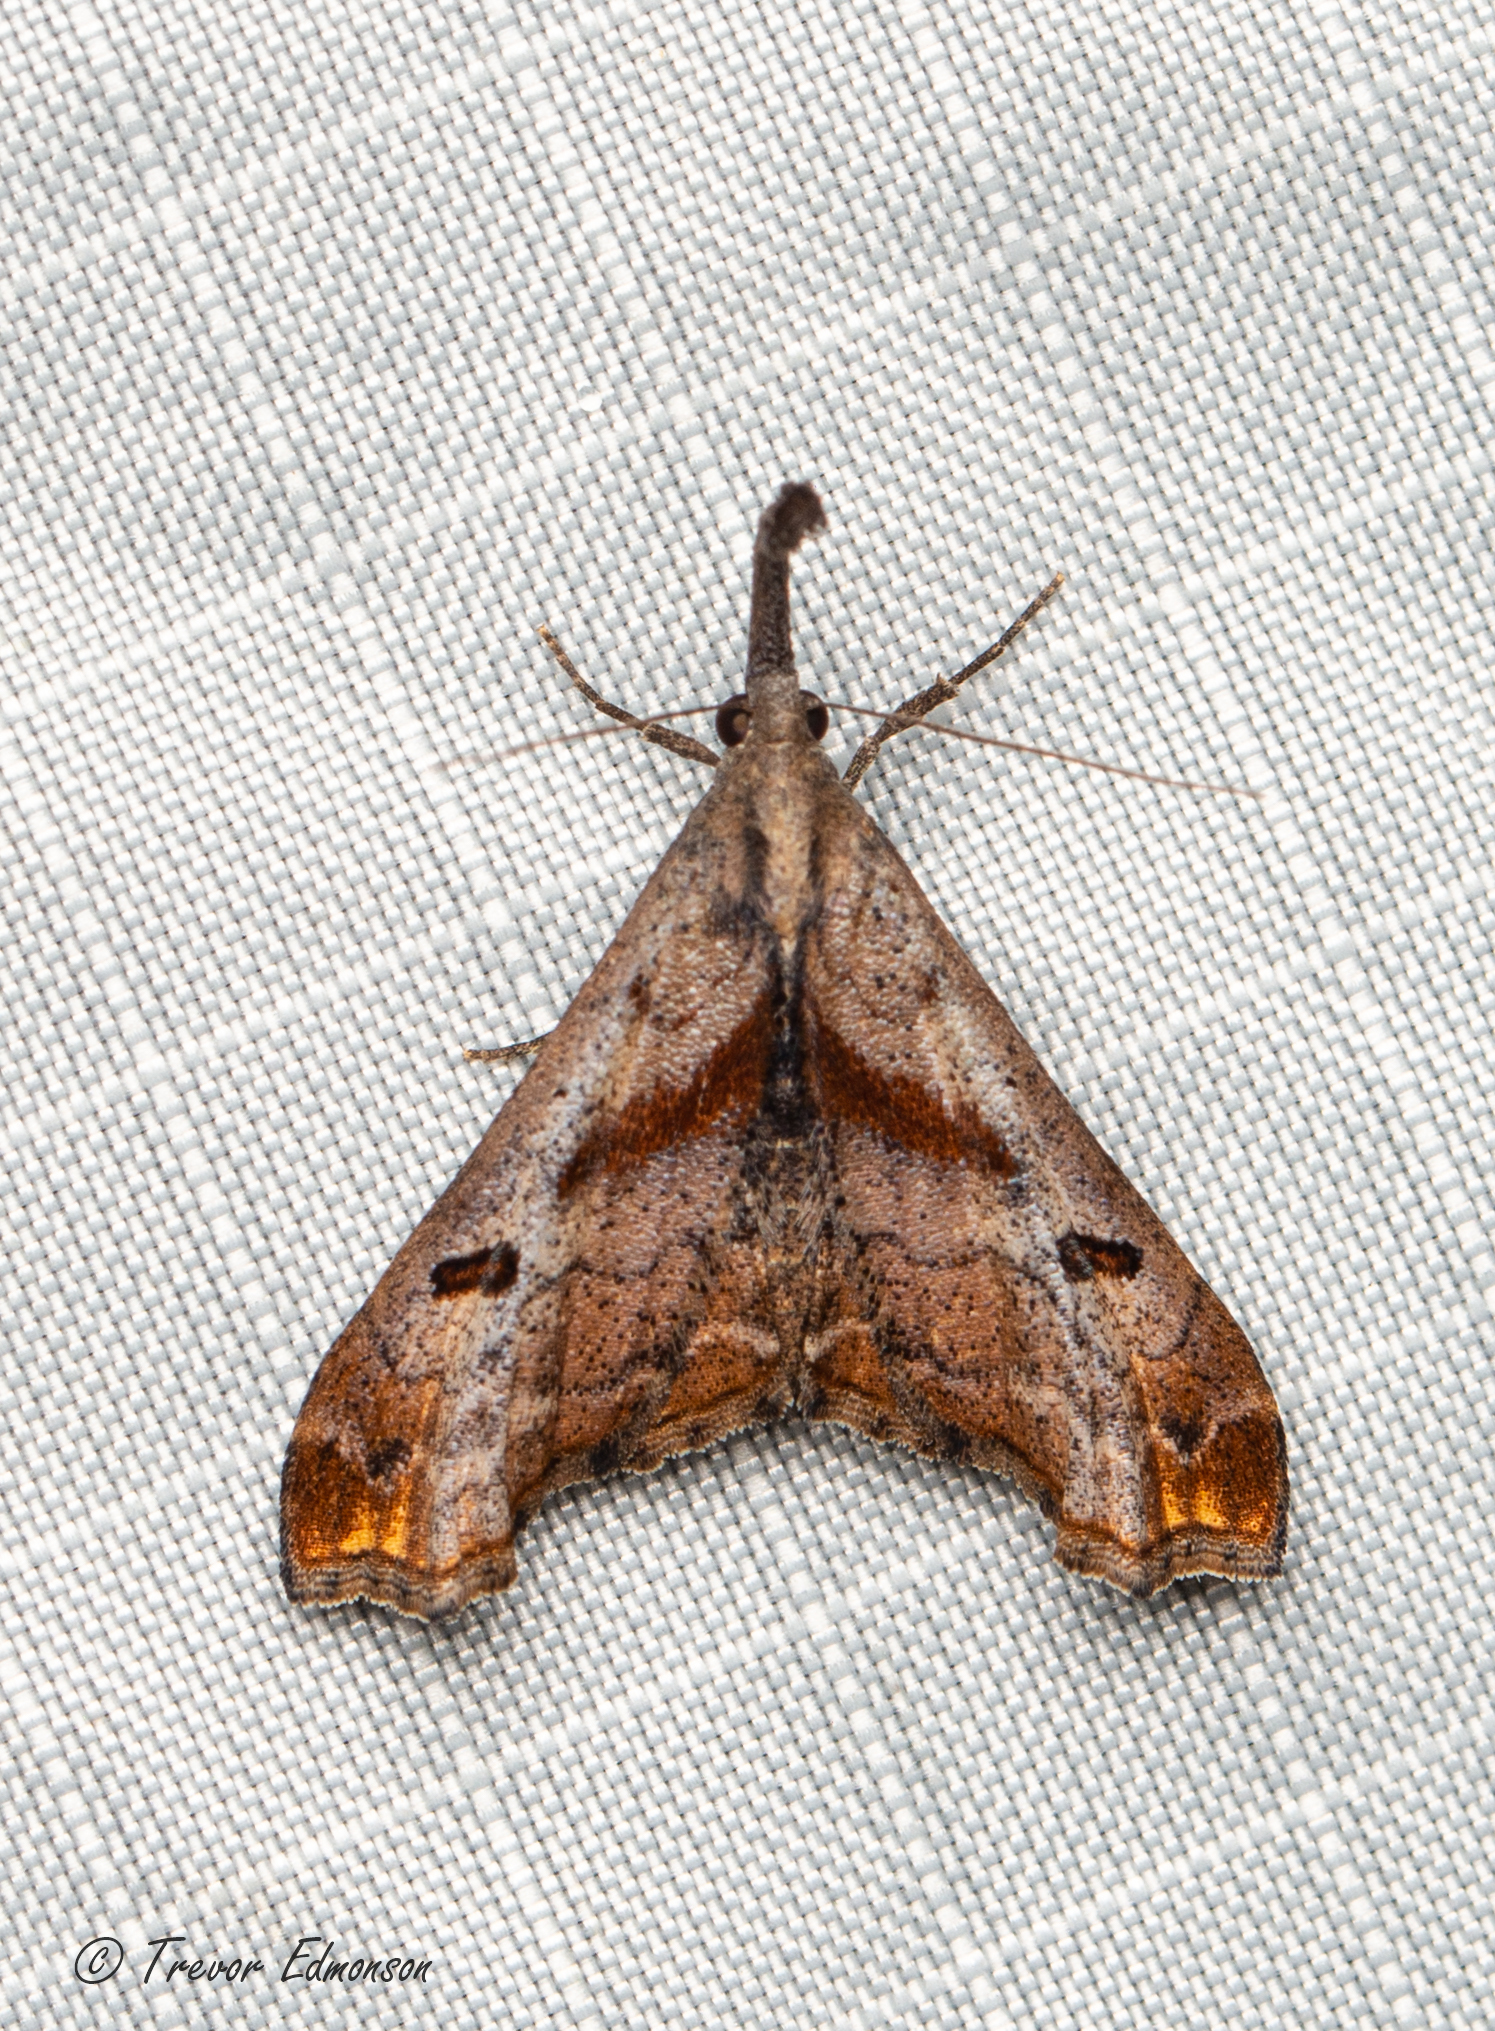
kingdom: Animalia
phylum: Arthropoda
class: Insecta
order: Lepidoptera
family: Erebidae
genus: Palthis
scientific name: Palthis angulalis
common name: Dark-spotted palthis moth
